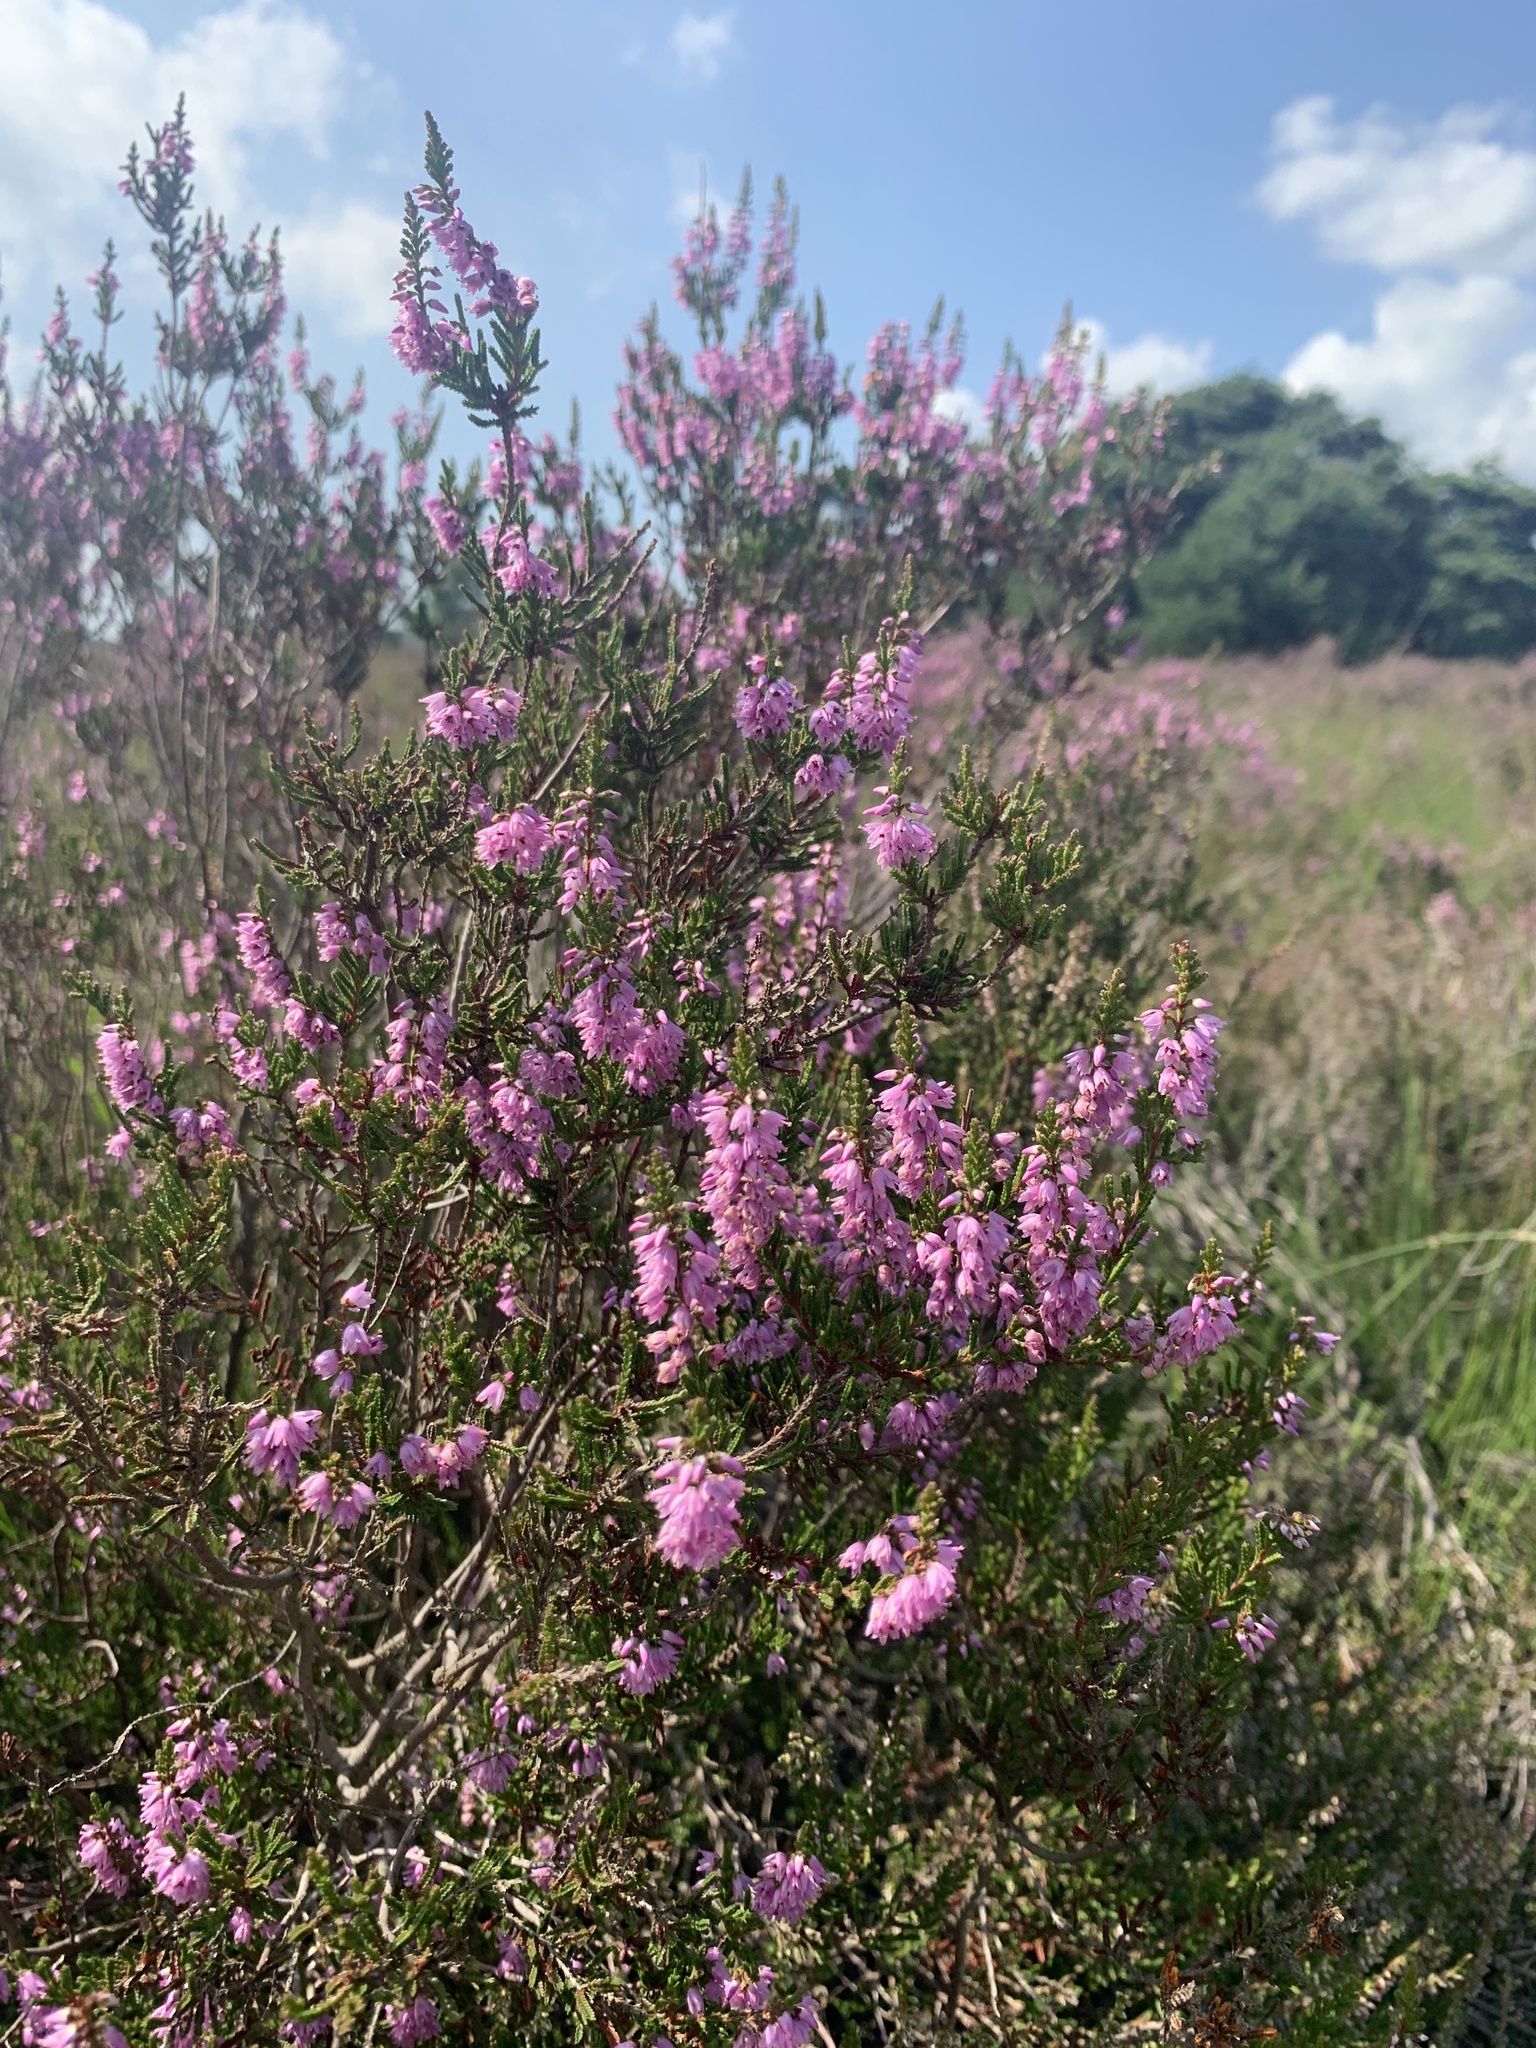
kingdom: Plantae
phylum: Tracheophyta
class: Magnoliopsida
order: Ericales
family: Ericaceae
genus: Calluna
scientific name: Calluna vulgaris
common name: Heather
